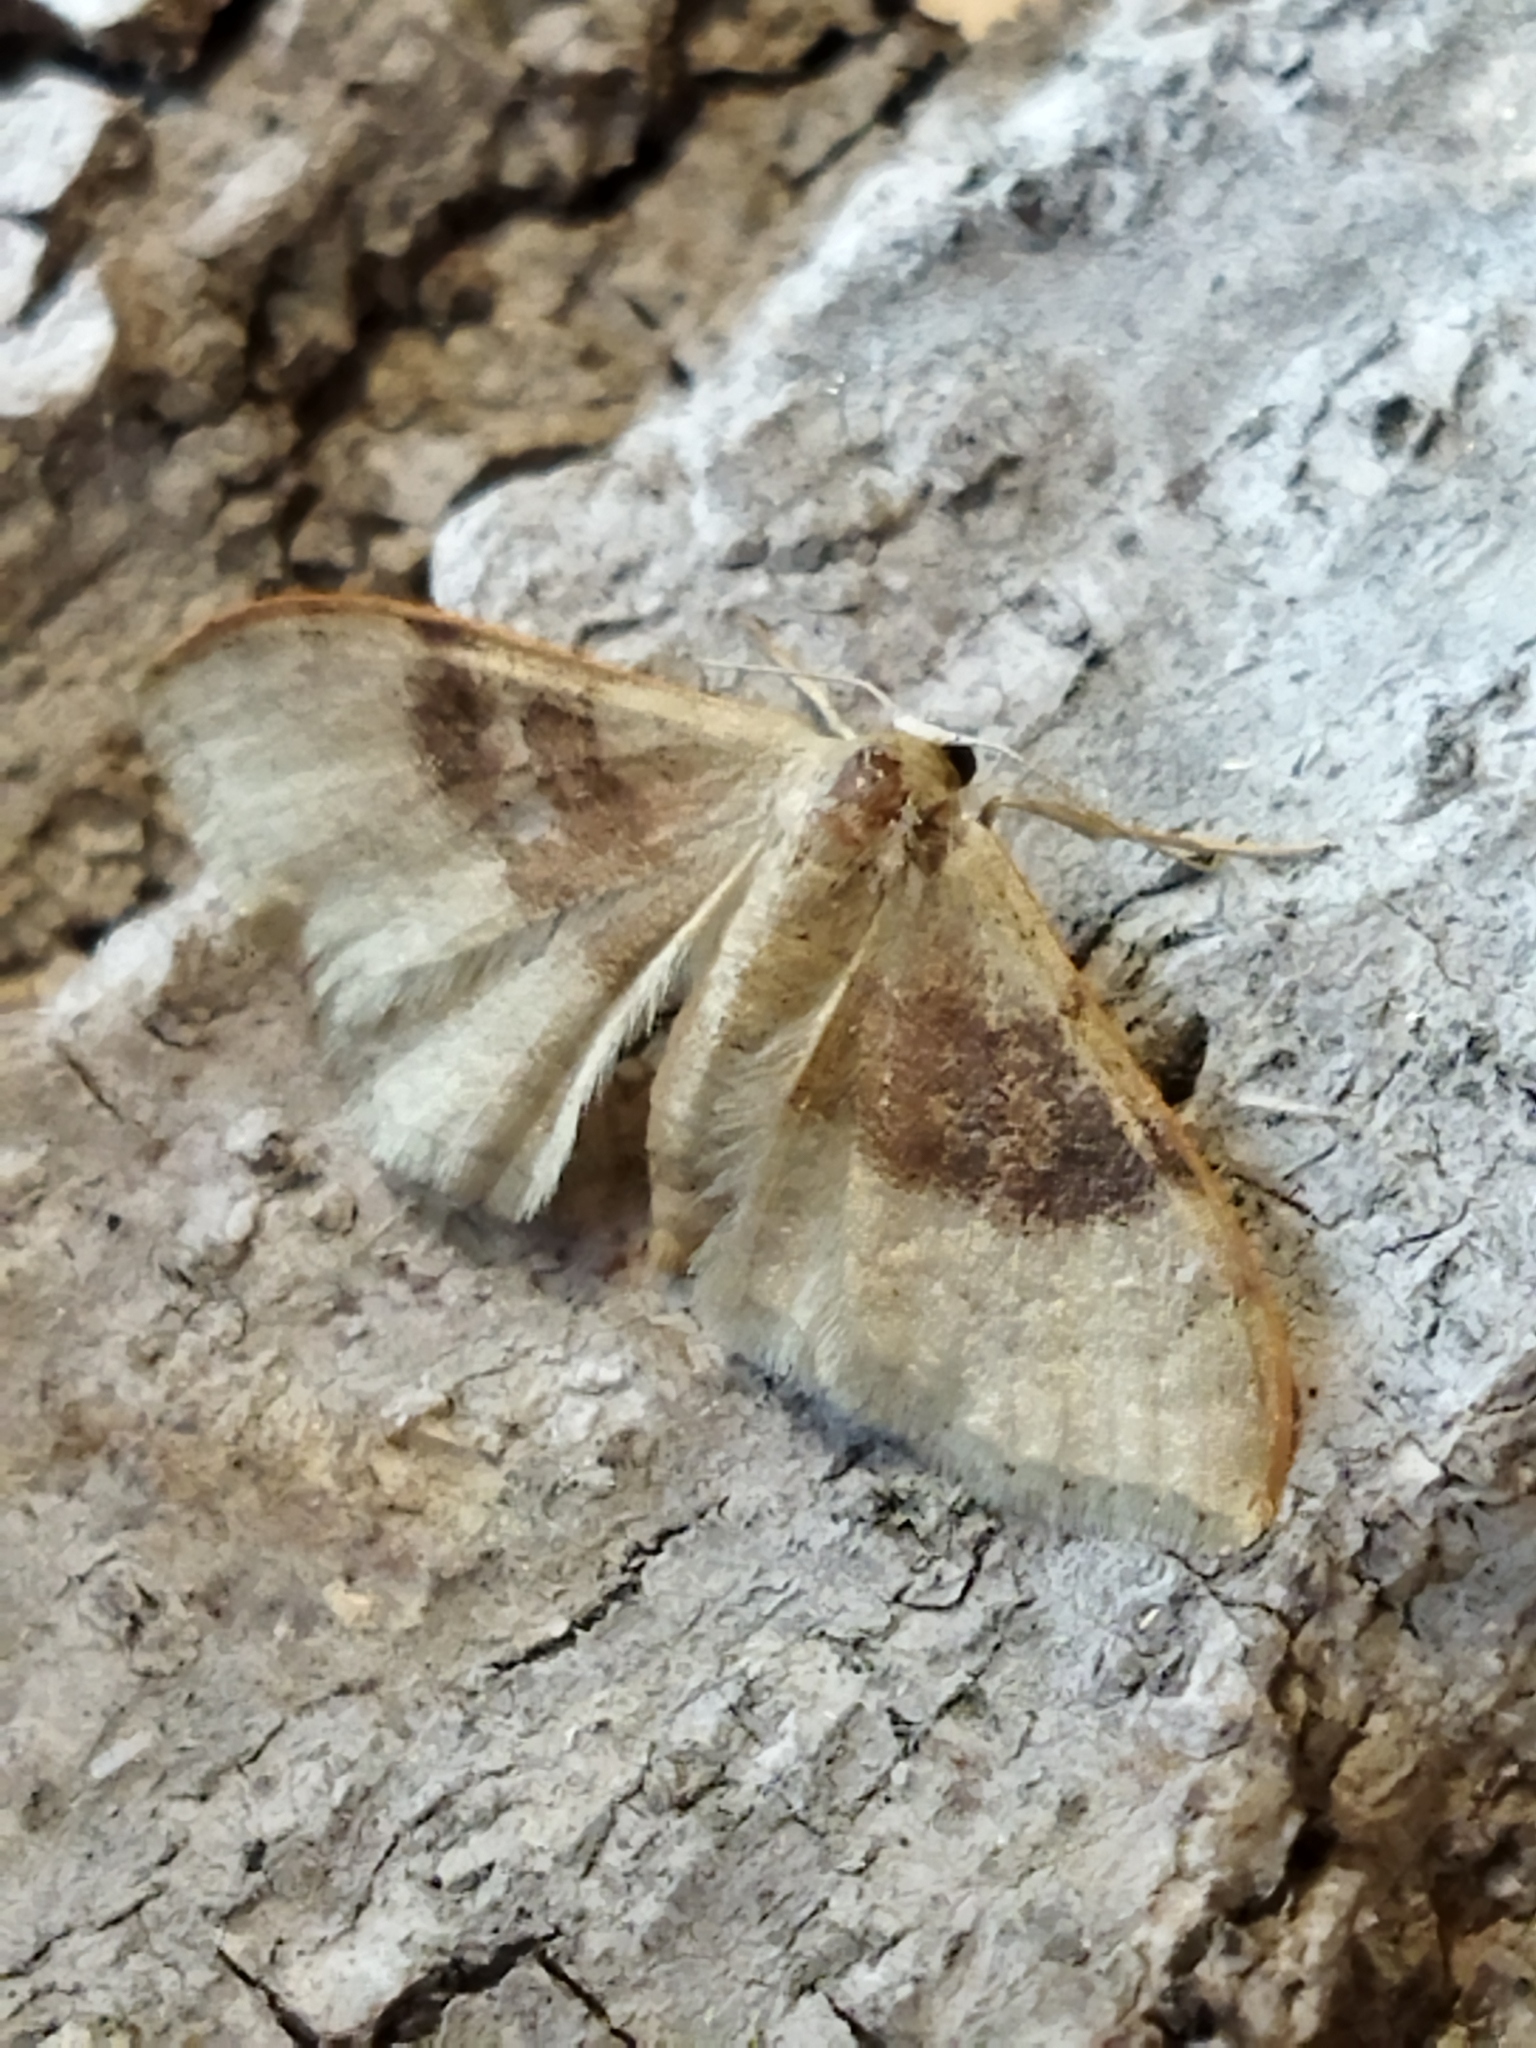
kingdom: Animalia
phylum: Arthropoda
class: Insecta
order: Lepidoptera
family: Geometridae
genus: Idaea
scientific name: Idaea degeneraria
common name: Portland ribbon wave
